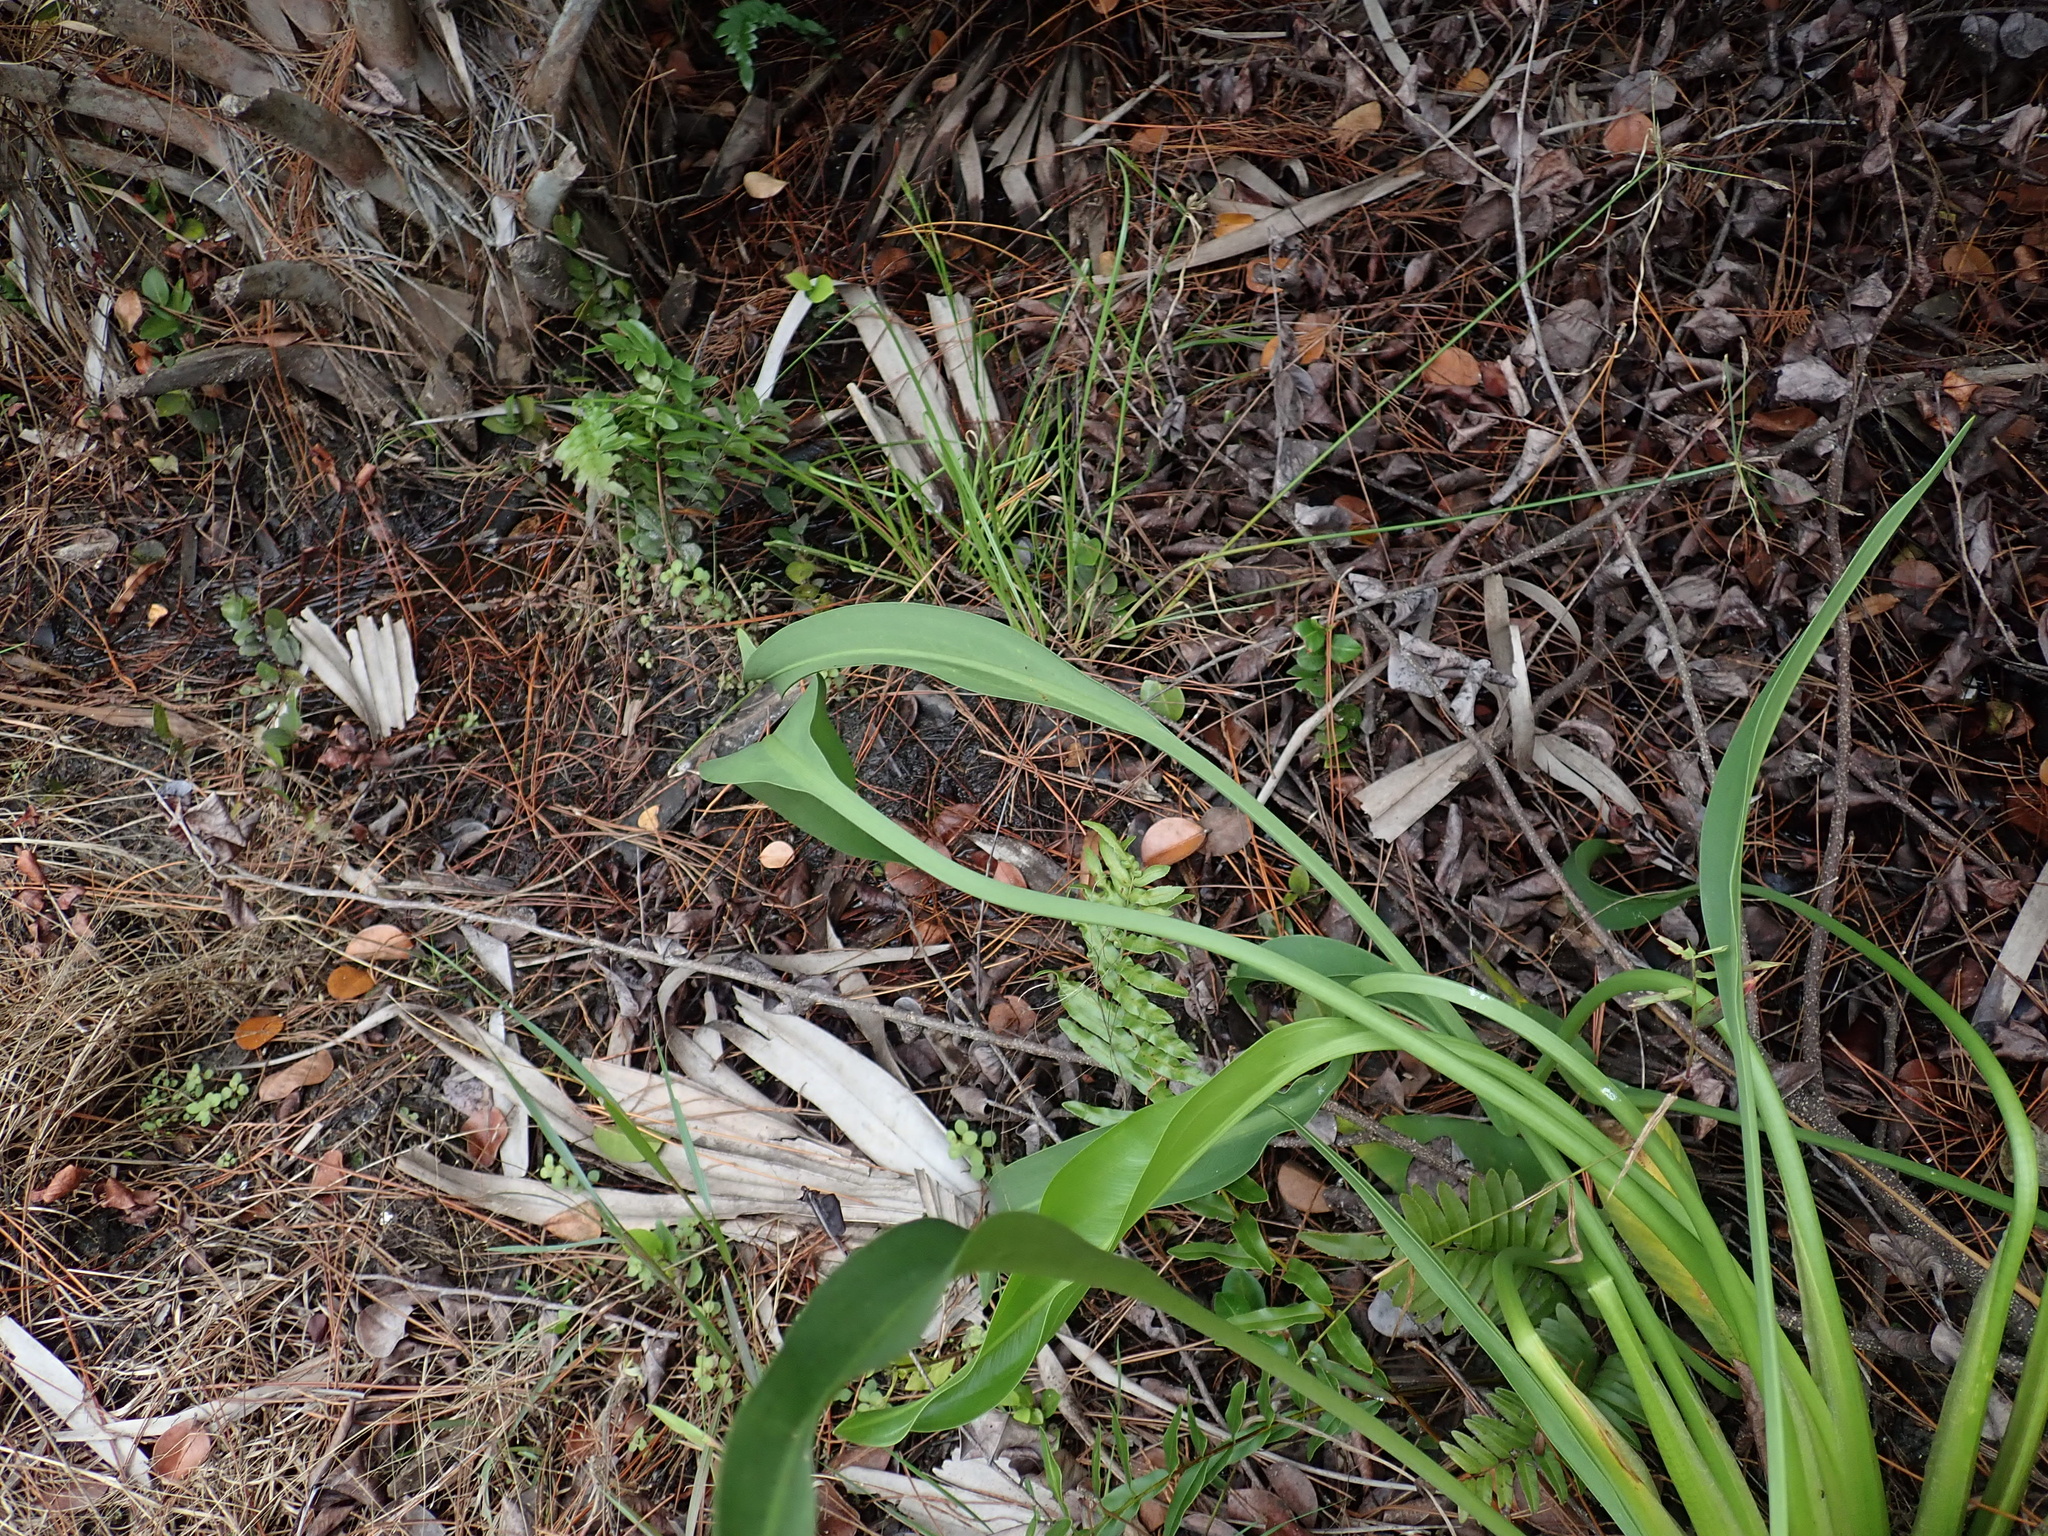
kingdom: Plantae
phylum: Tracheophyta
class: Liliopsida
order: Alismatales
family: Alismataceae
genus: Sagittaria
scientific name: Sagittaria lancifolia
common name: Lance-leaf arrowhead
